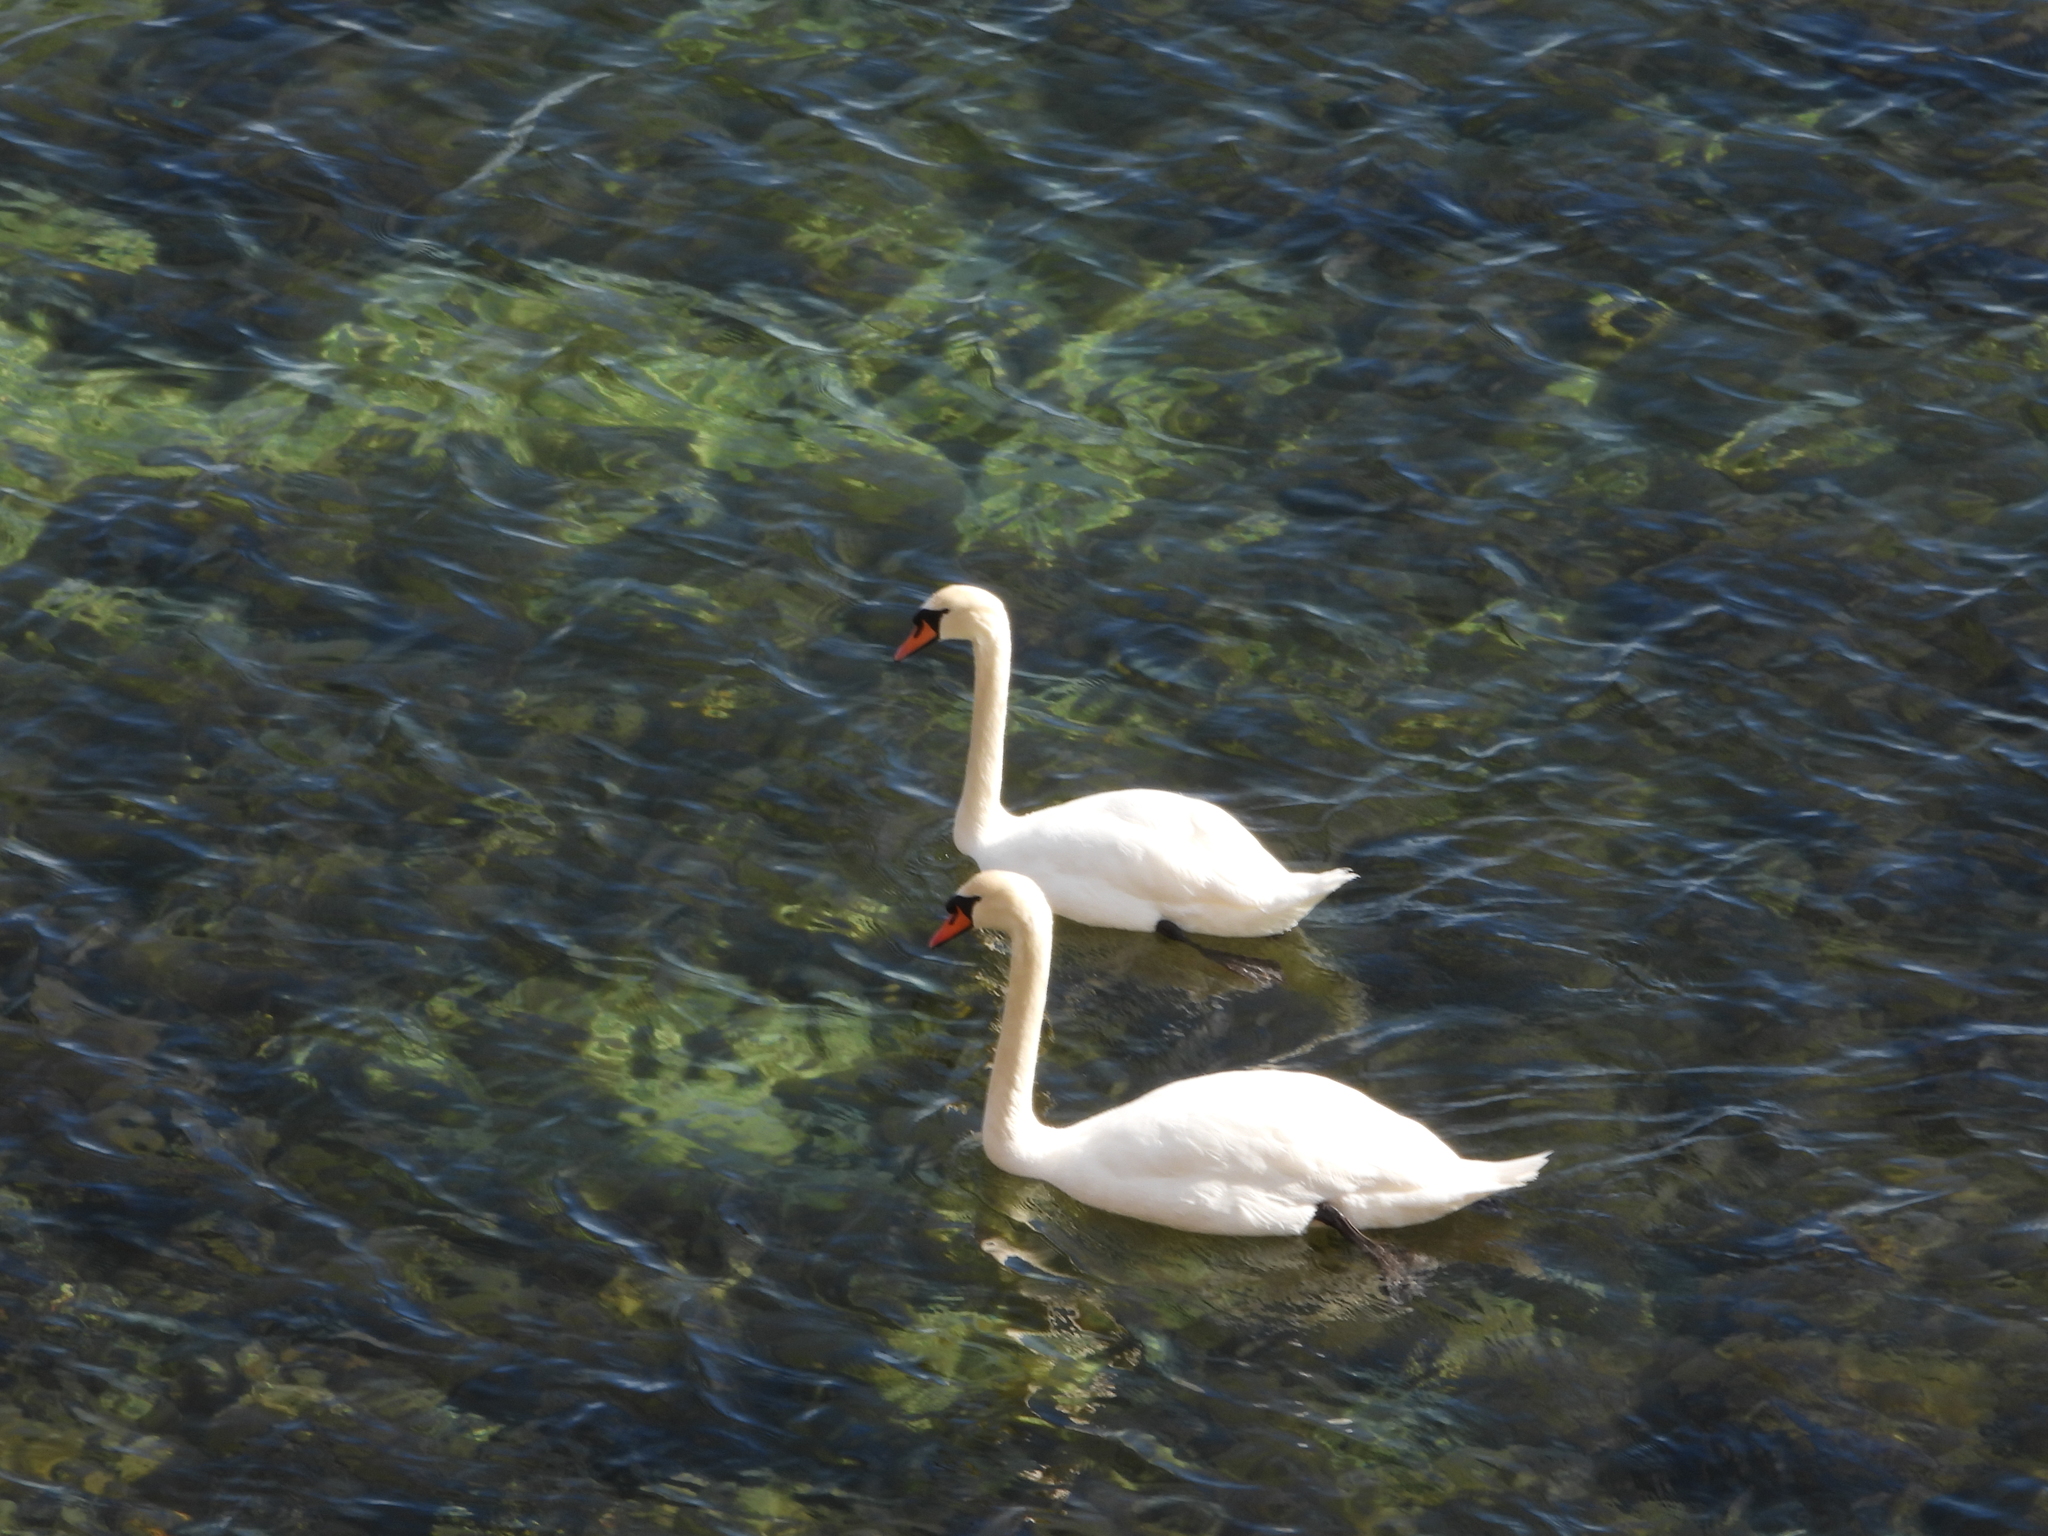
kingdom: Animalia
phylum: Chordata
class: Aves
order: Anseriformes
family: Anatidae
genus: Cygnus
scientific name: Cygnus olor
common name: Mute swan
